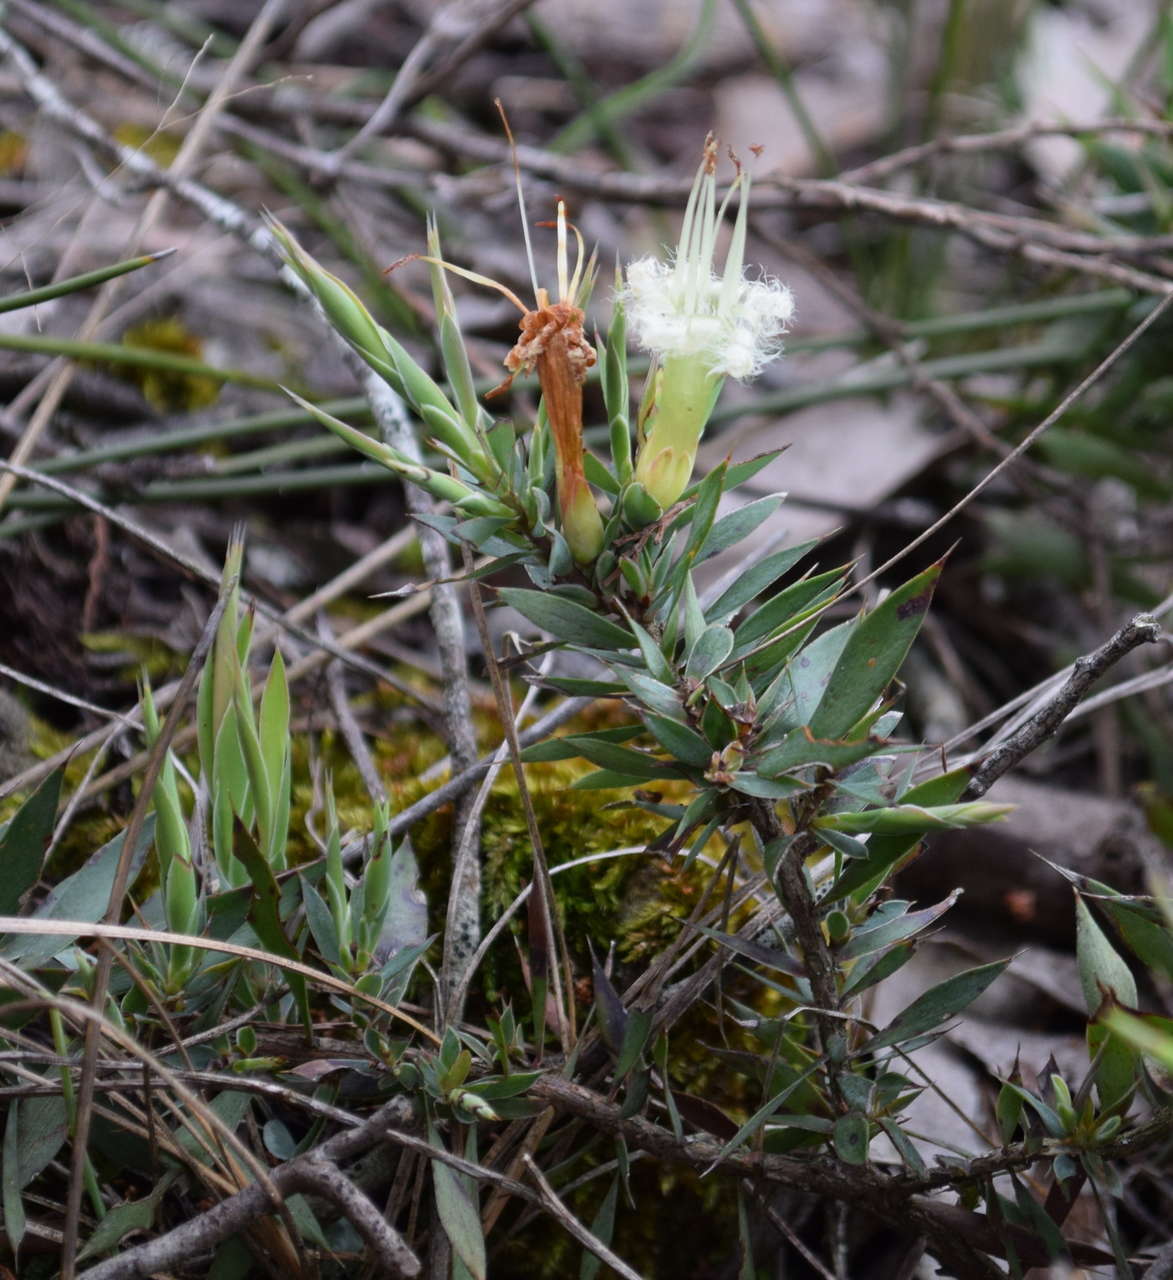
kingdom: Plantae
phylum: Tracheophyta
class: Magnoliopsida
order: Ericales
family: Ericaceae
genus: Styphelia
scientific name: Styphelia adscendens
